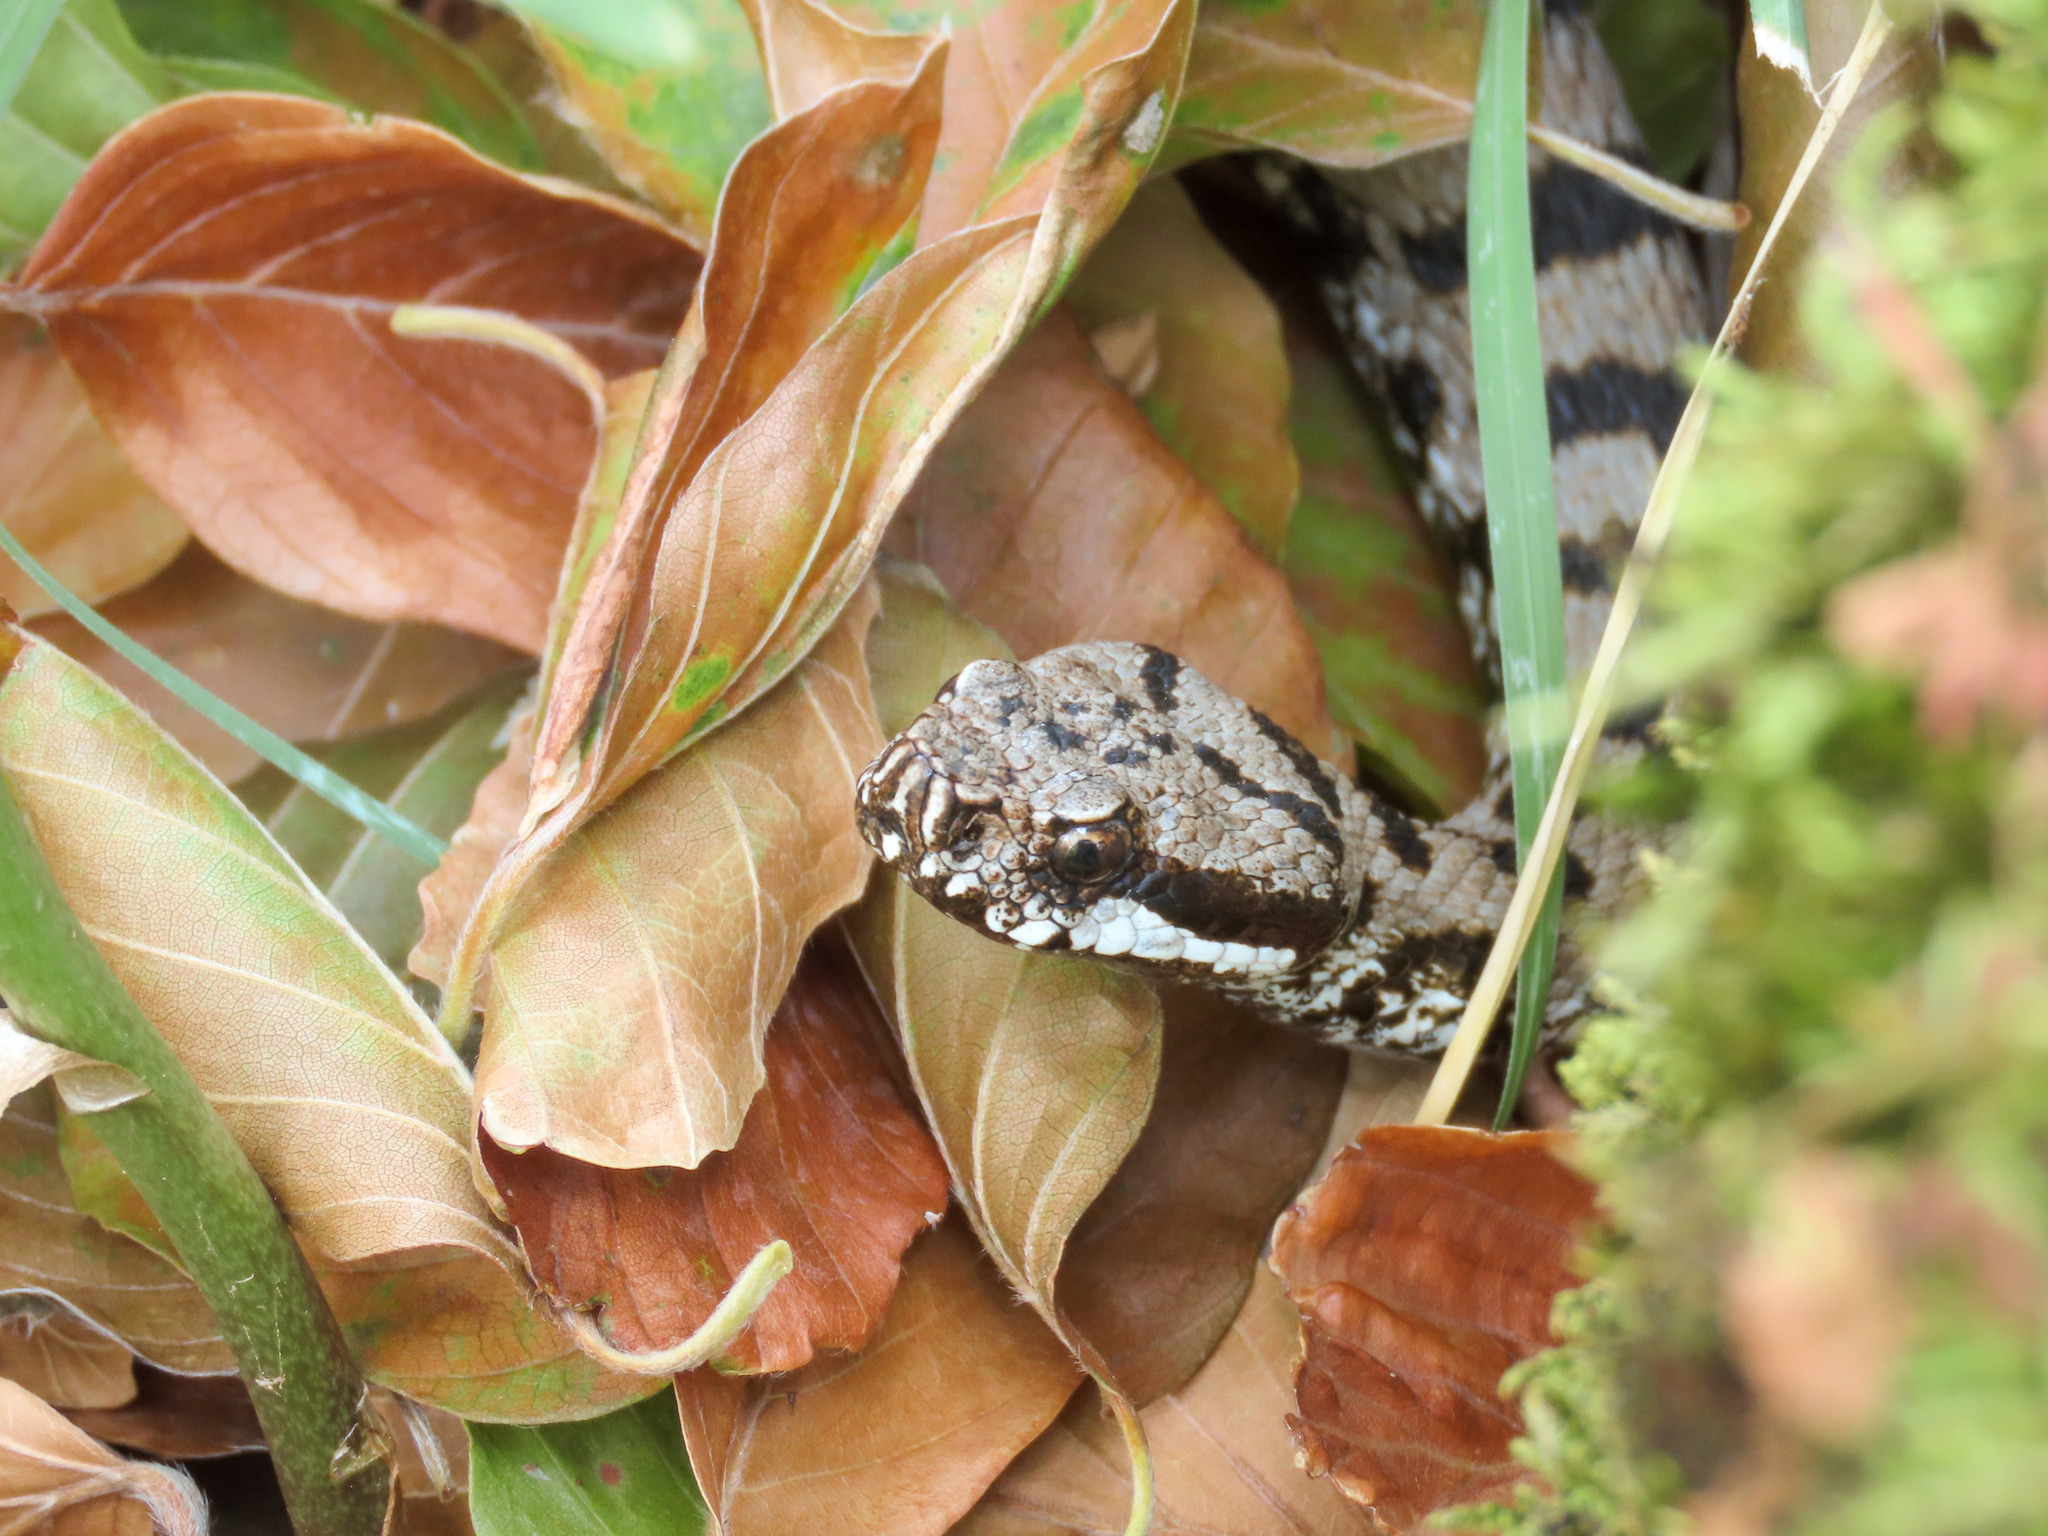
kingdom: Animalia
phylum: Chordata
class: Squamata
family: Viperidae
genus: Vipera
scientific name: Vipera aspis
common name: Asp viper
